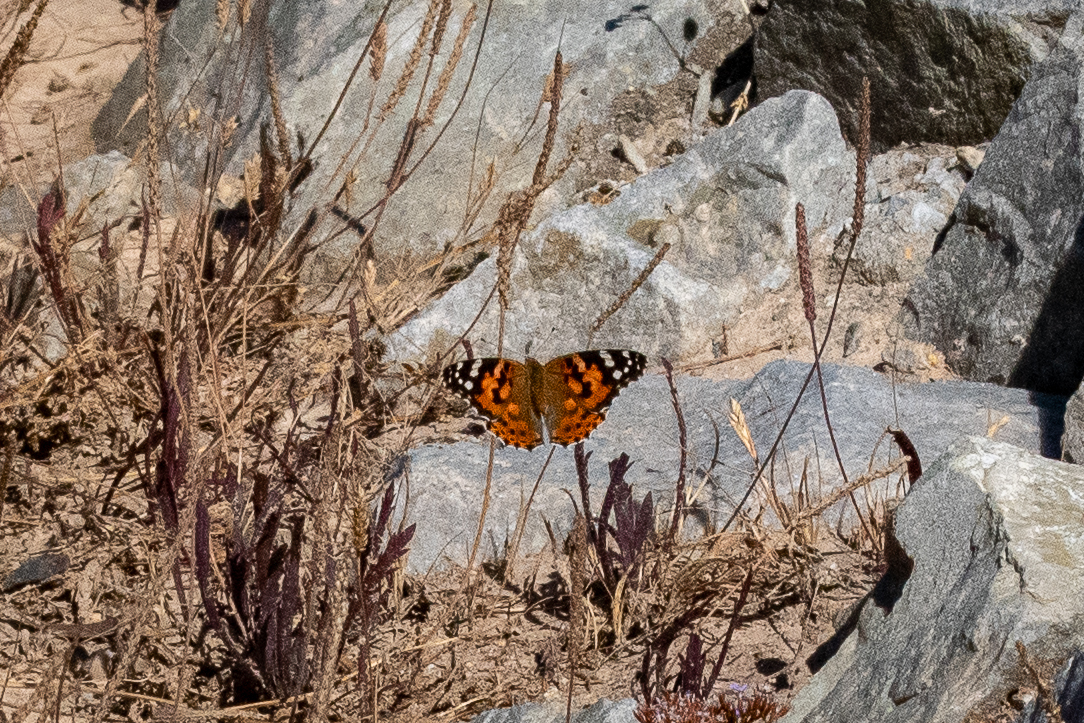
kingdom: Animalia
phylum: Arthropoda
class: Insecta
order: Lepidoptera
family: Nymphalidae
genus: Vanessa
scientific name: Vanessa cardui
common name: Painted lady
